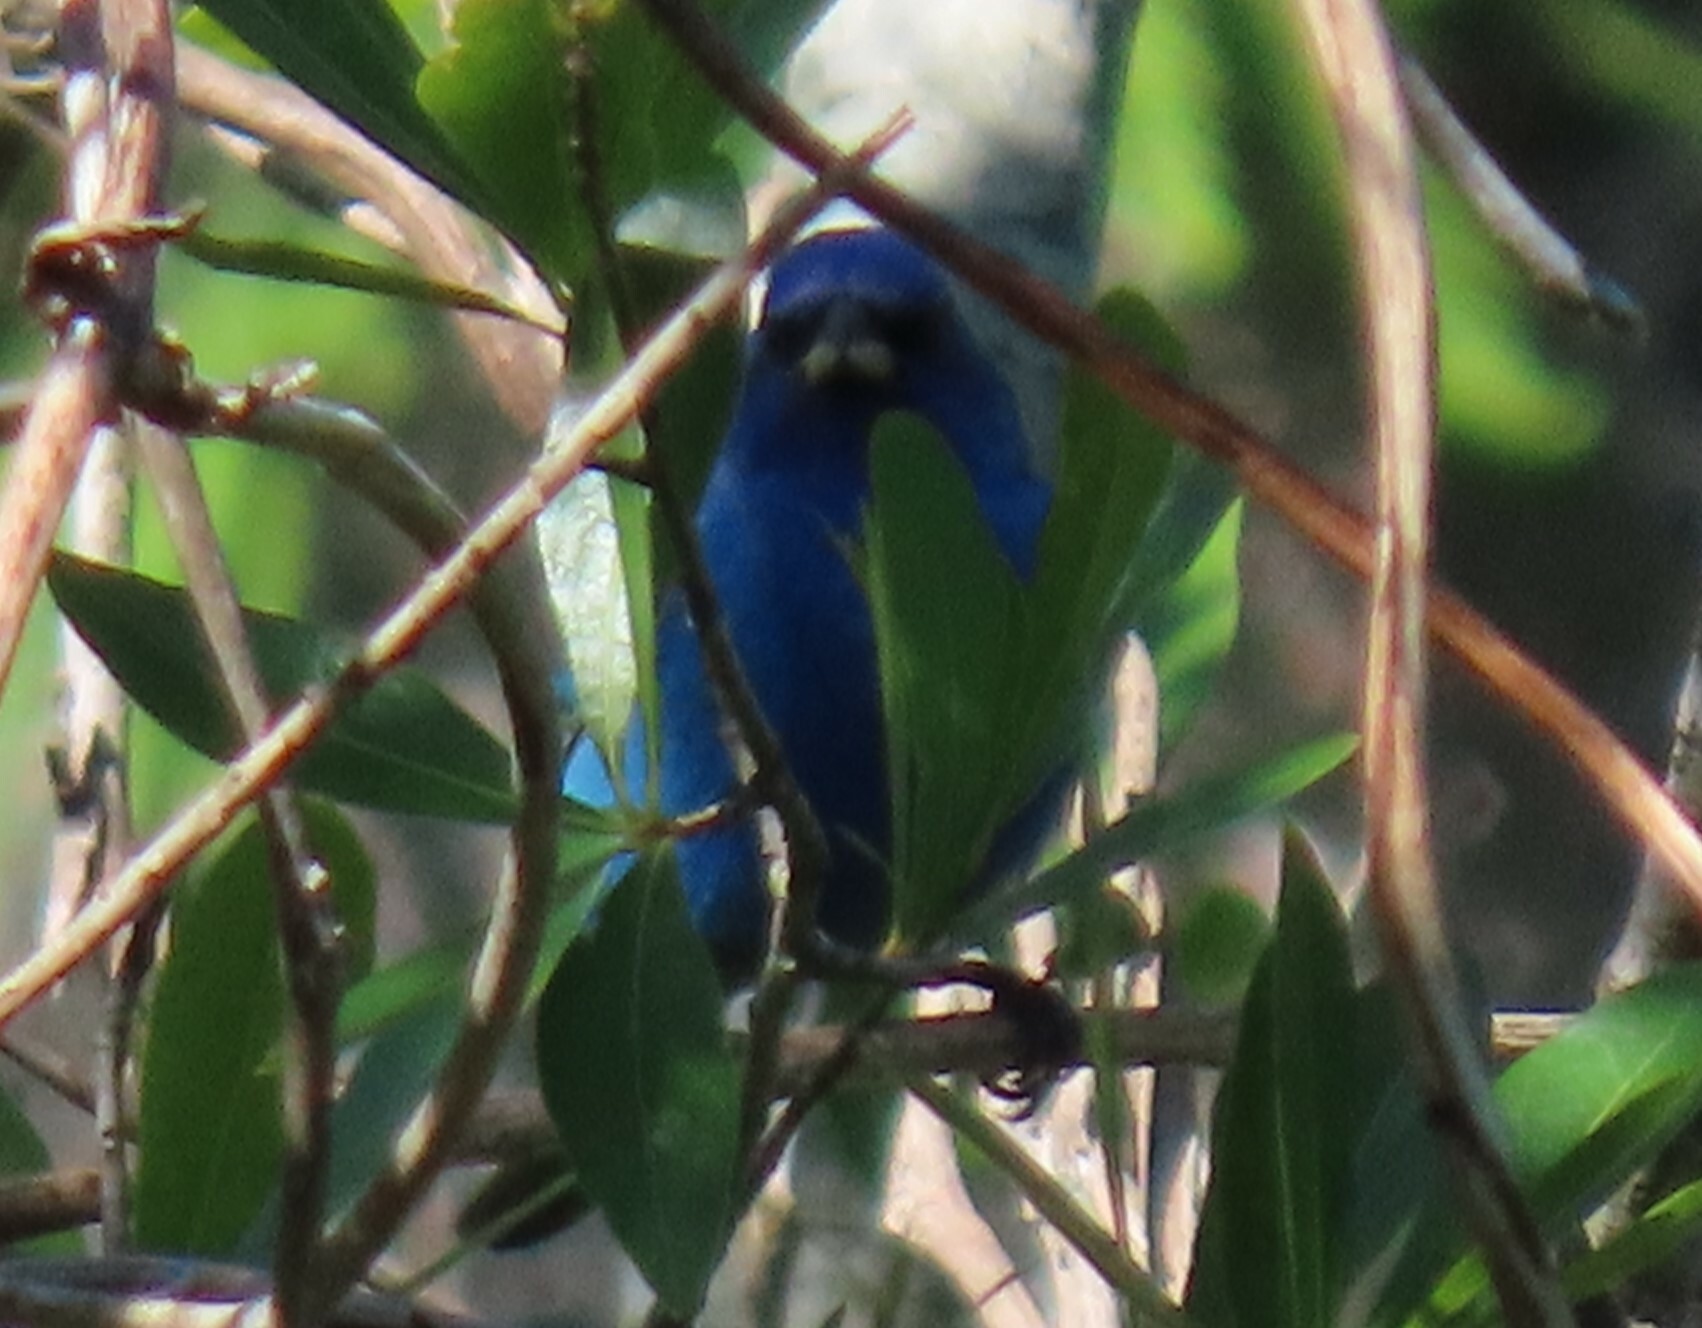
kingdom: Animalia
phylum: Chordata
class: Aves
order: Passeriformes
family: Cardinalidae
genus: Passerina
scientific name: Passerina cyanea
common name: Indigo bunting
